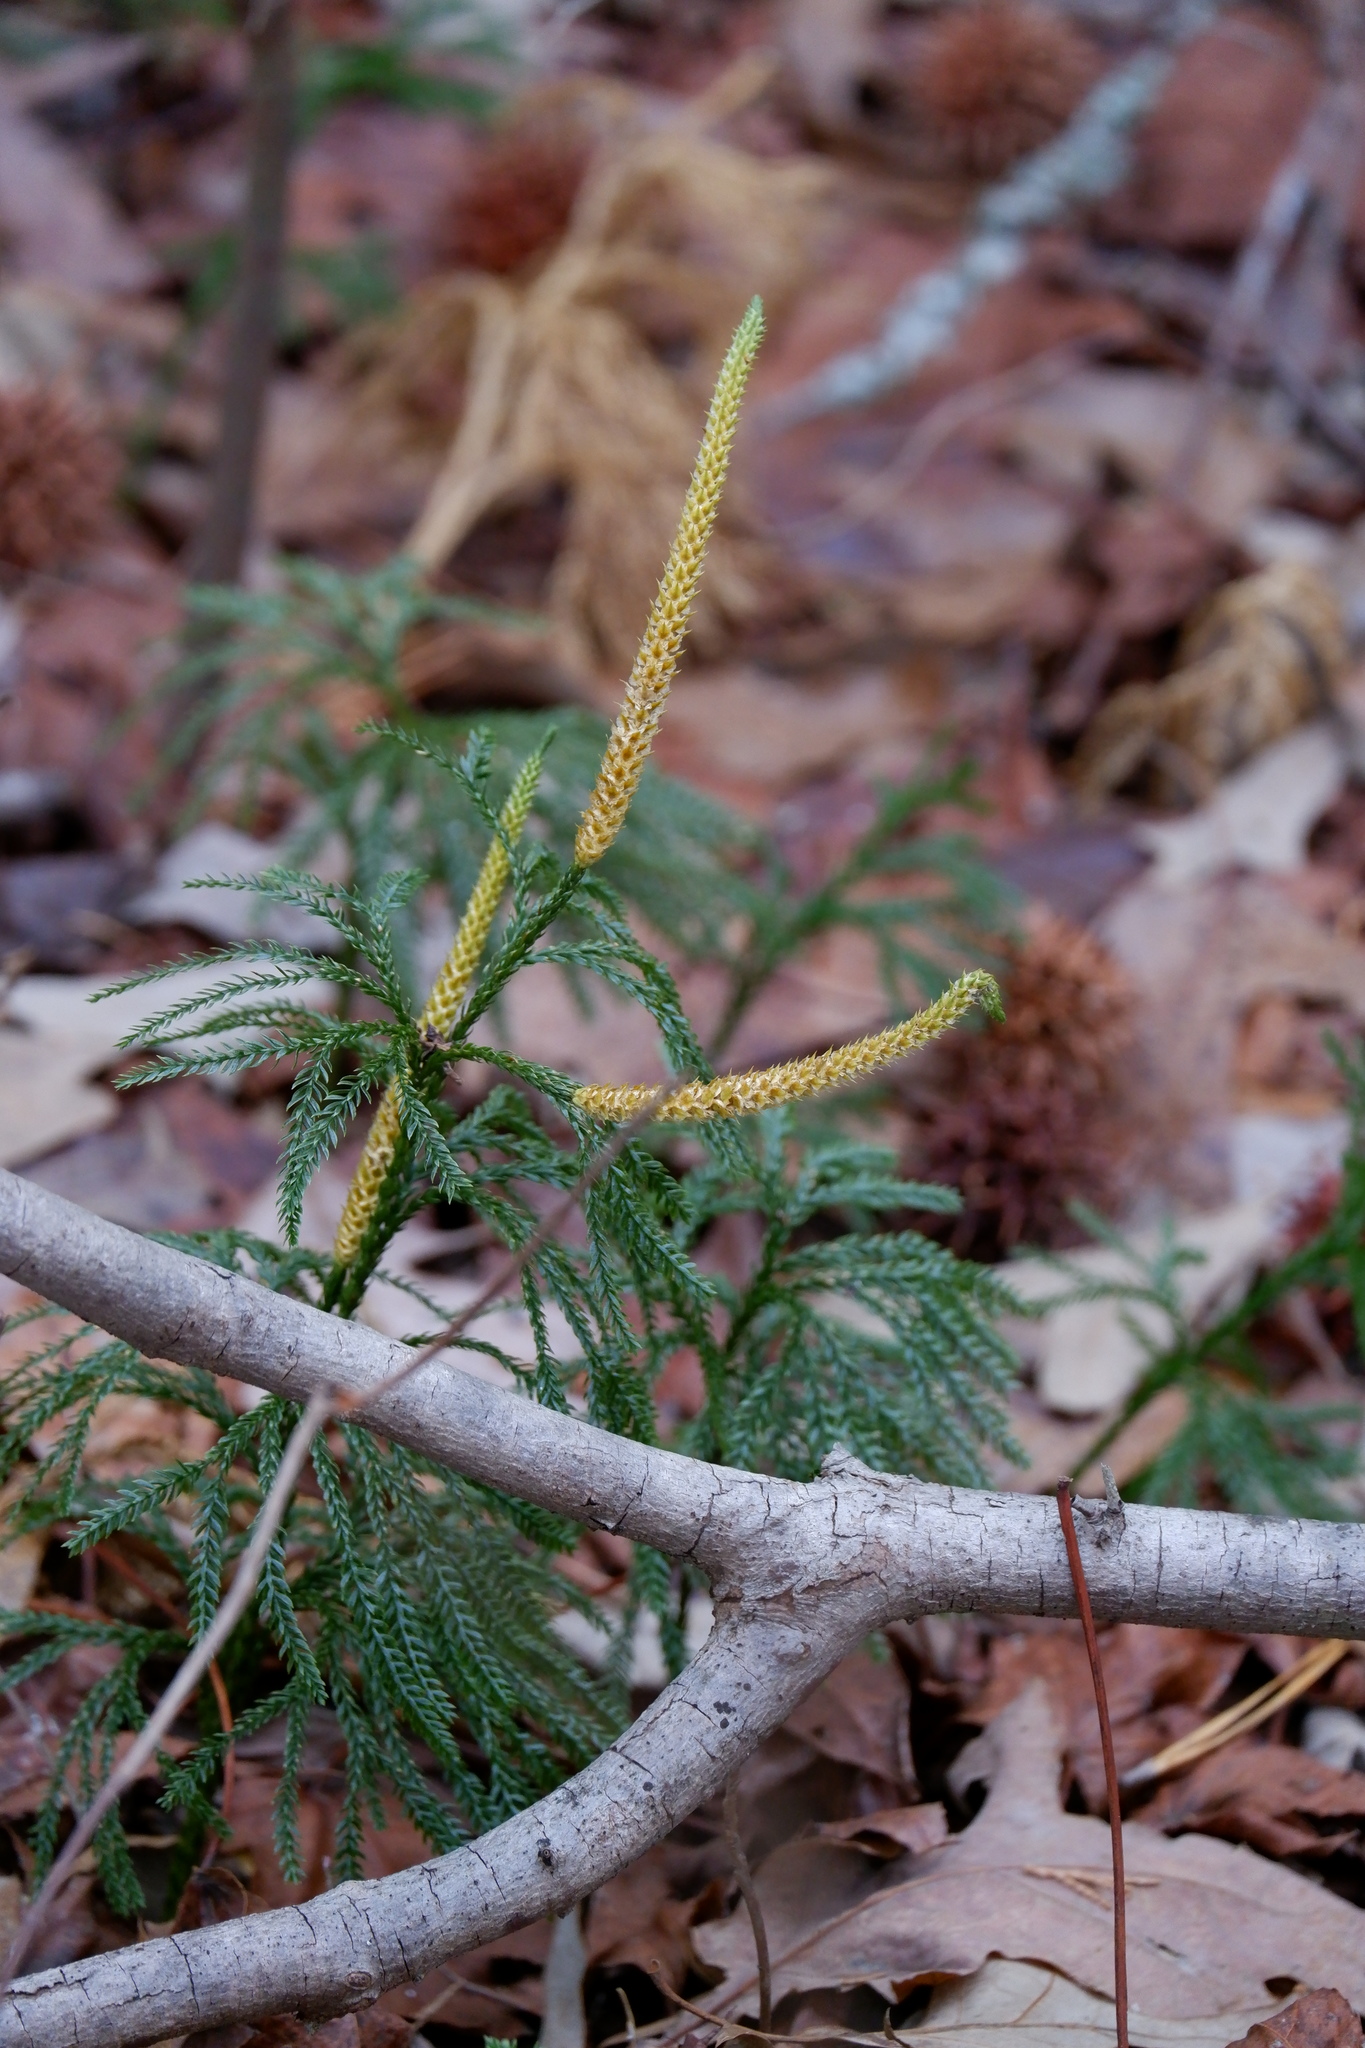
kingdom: Plantae
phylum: Tracheophyta
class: Lycopodiopsida
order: Lycopodiales
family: Lycopodiaceae
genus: Dendrolycopodium
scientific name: Dendrolycopodium obscurum
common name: Common ground-pine
